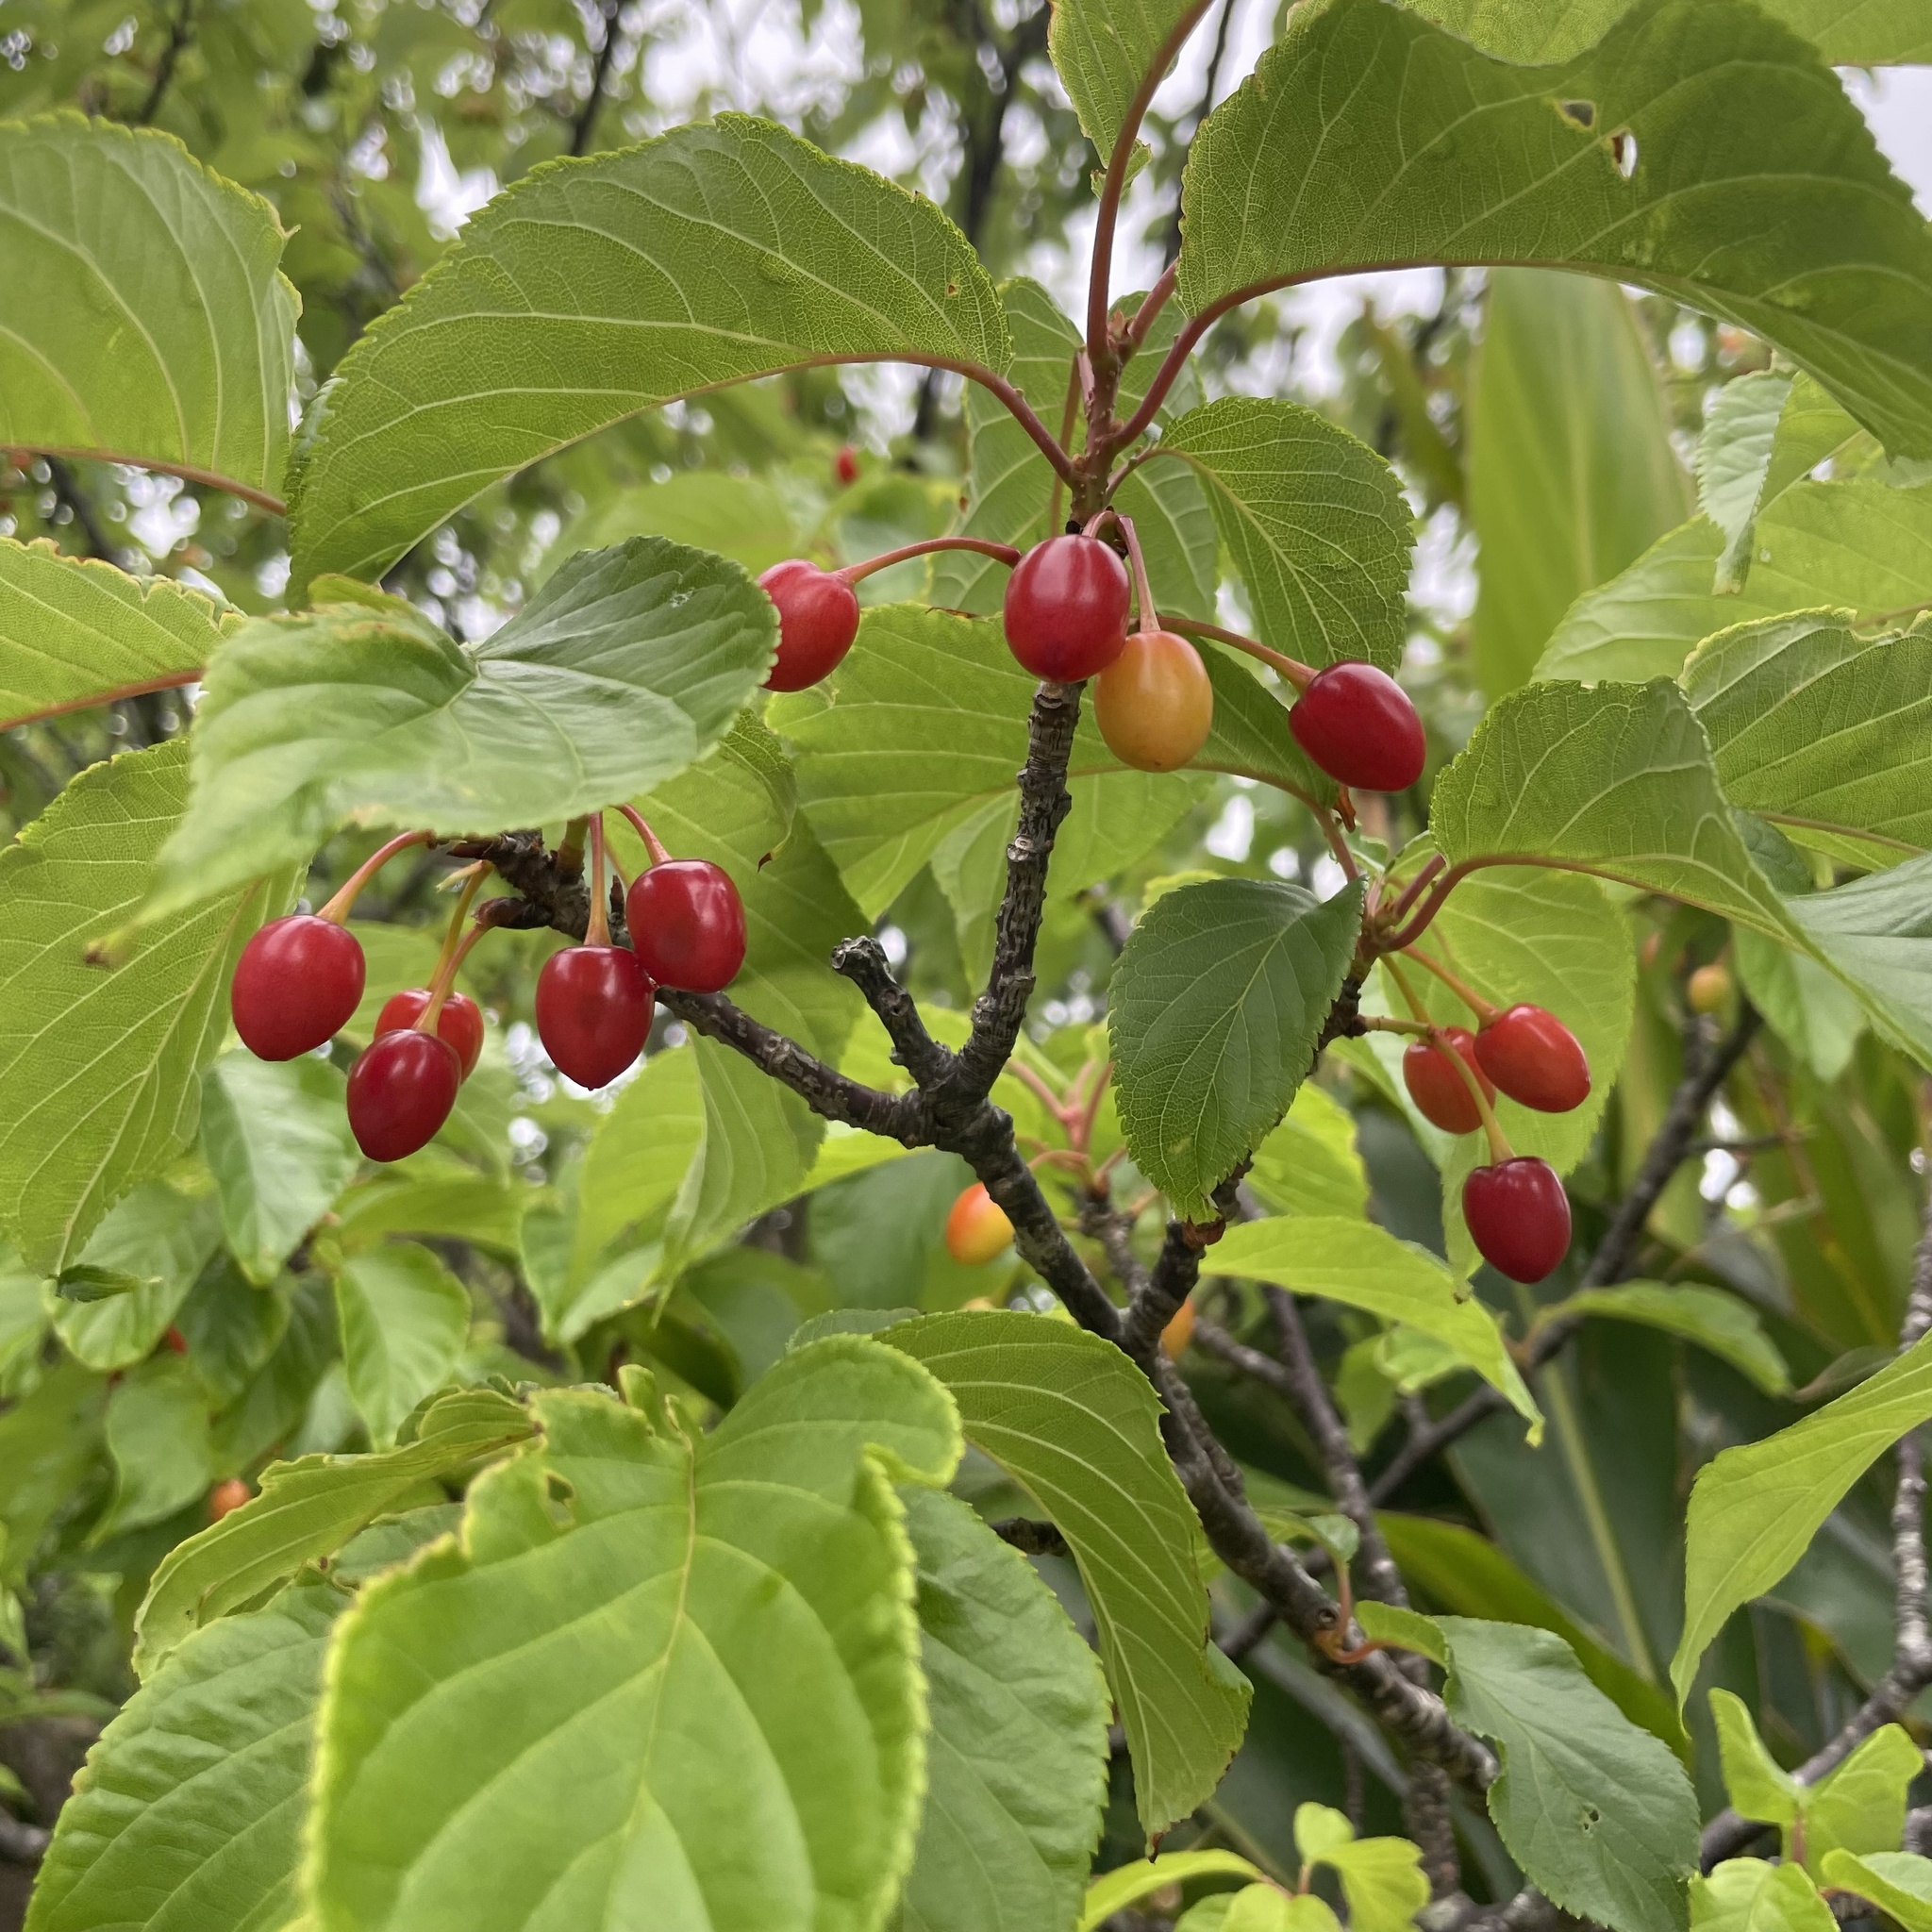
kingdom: Plantae
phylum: Tracheophyta
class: Magnoliopsida
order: Rosales
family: Rosaceae
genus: Prunus
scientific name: Prunus campanulata
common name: Taiwan flowering cherry
